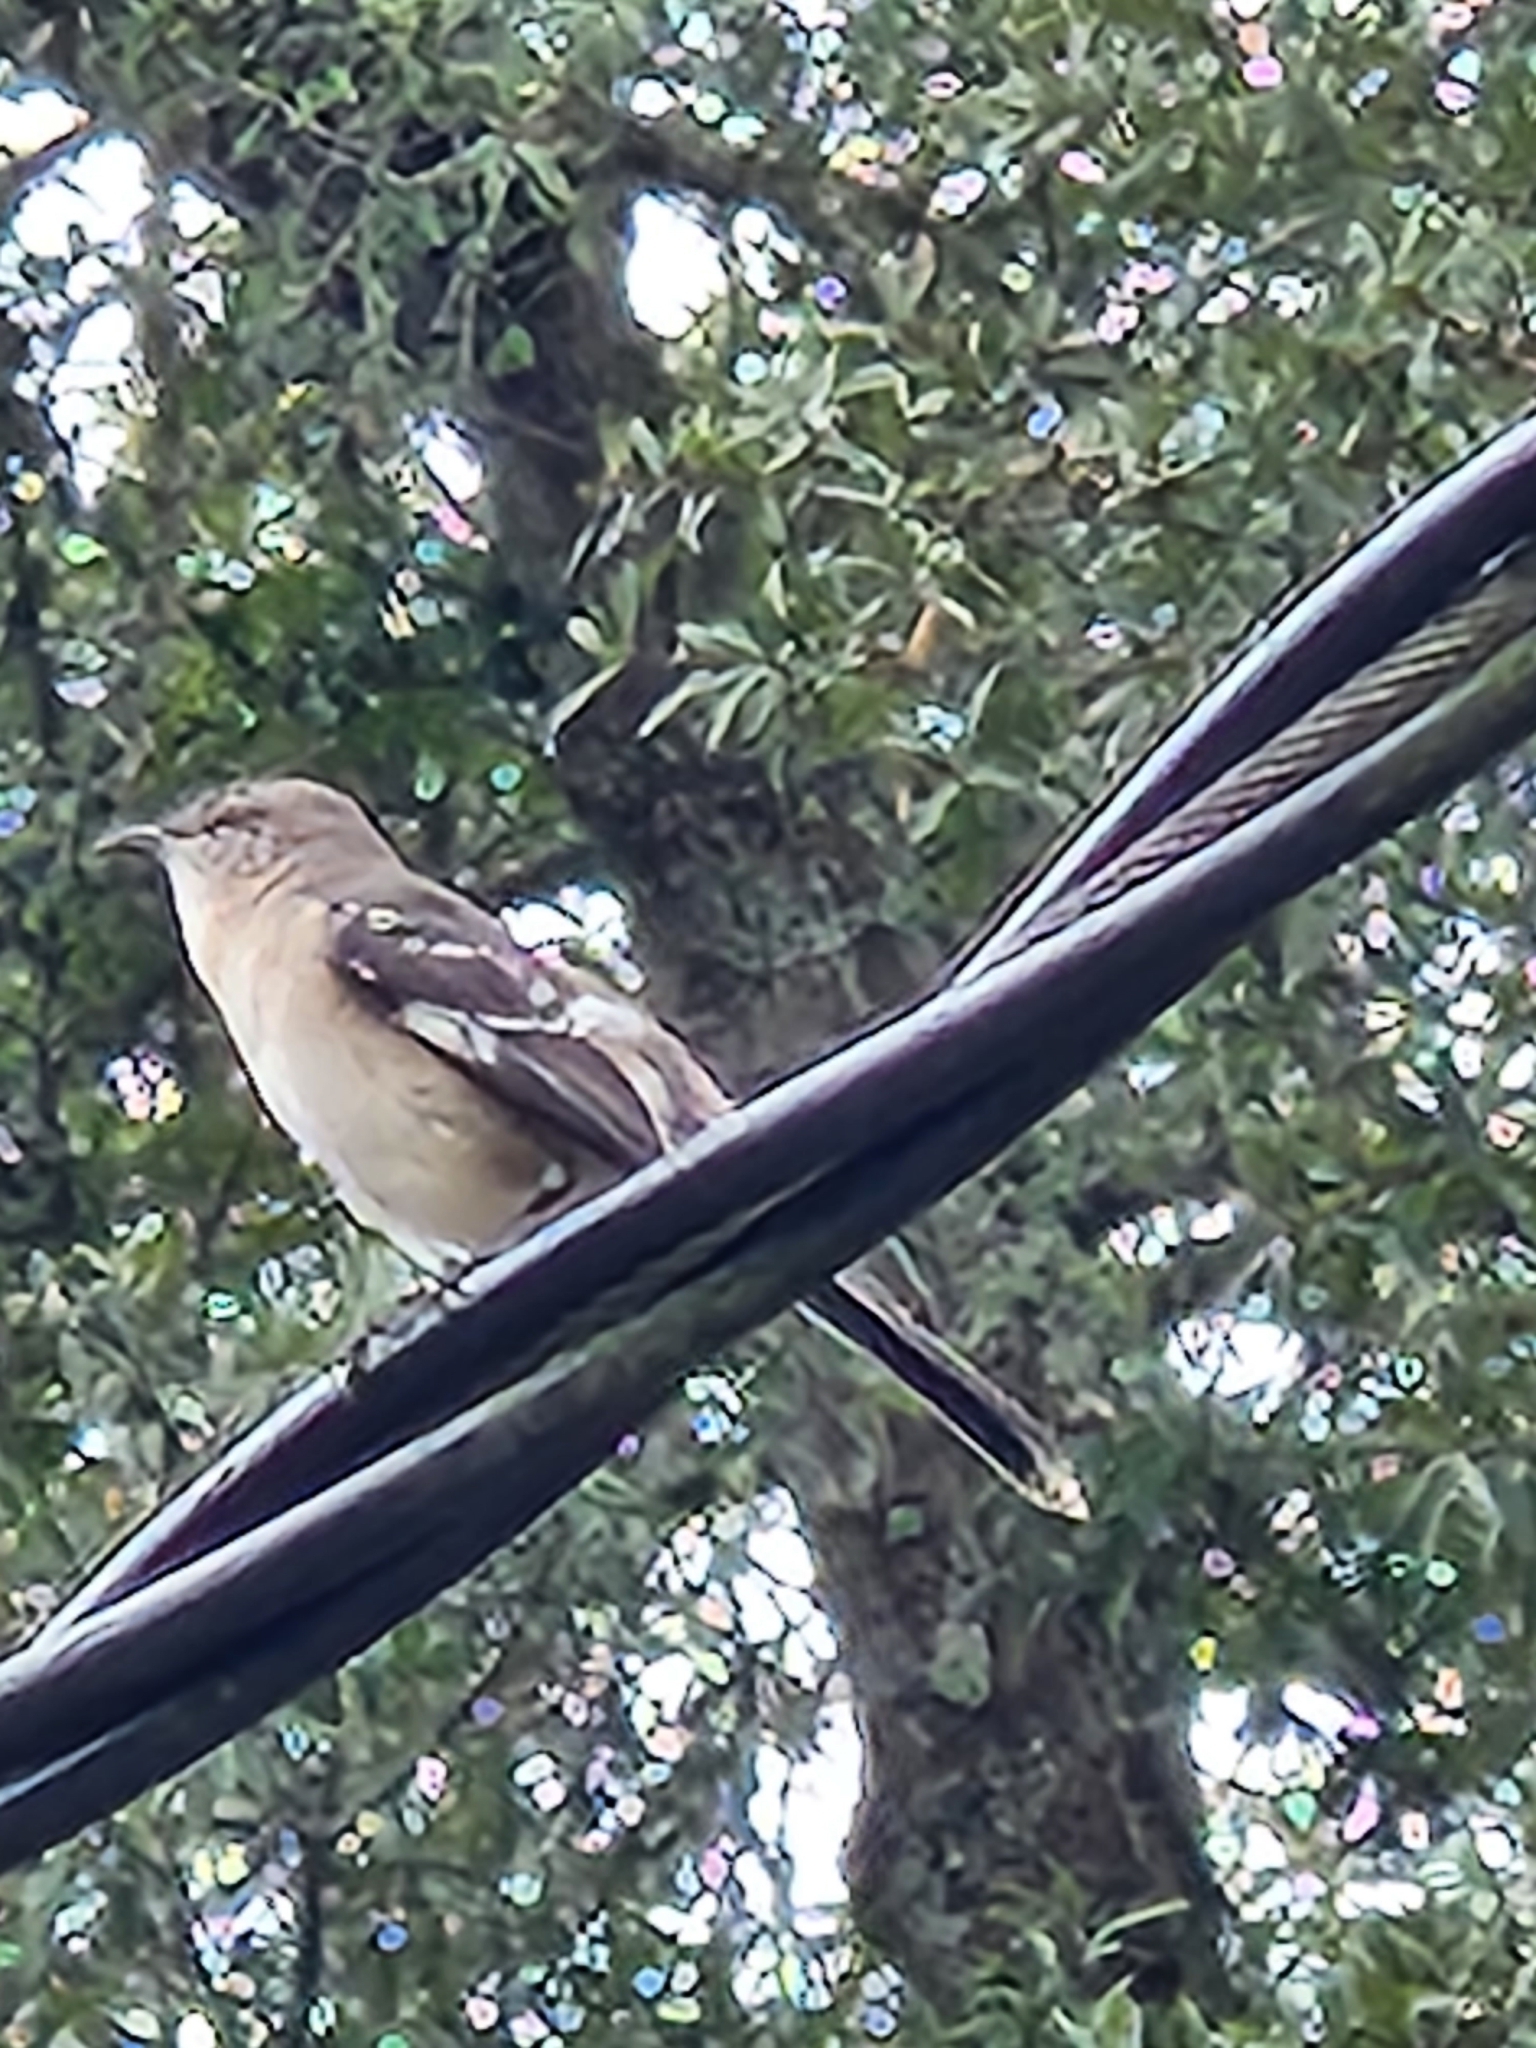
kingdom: Animalia
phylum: Chordata
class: Aves
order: Passeriformes
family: Mimidae
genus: Mimus
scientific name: Mimus polyglottos
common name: Northern mockingbird
